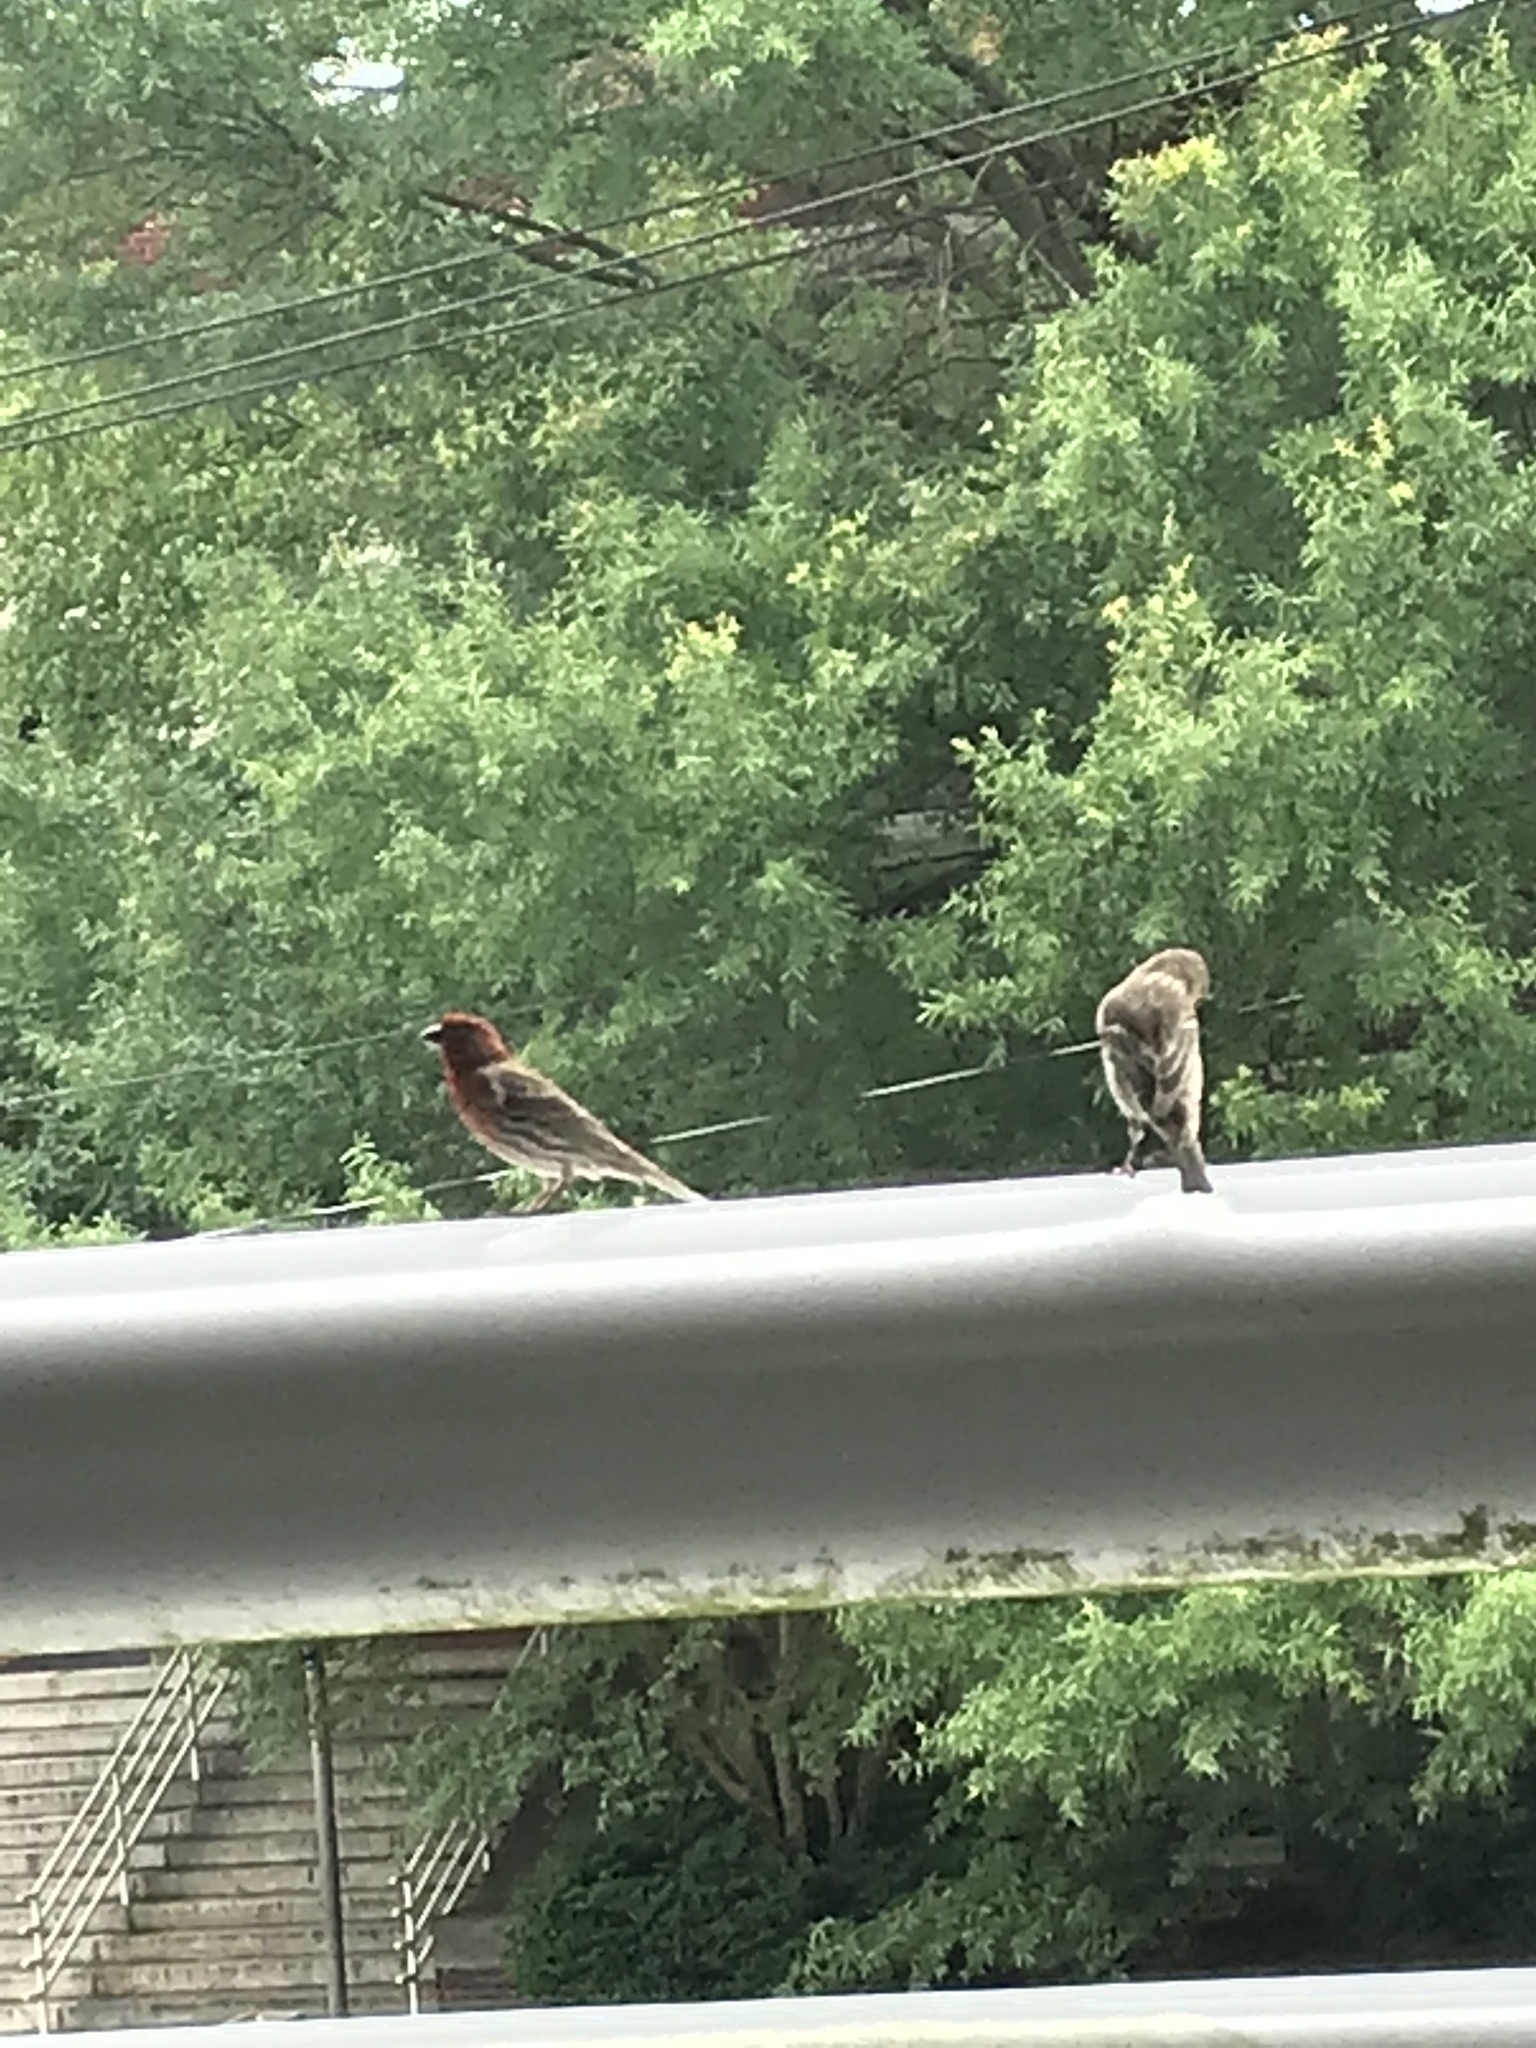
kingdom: Animalia
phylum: Chordata
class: Aves
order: Passeriformes
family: Fringillidae
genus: Haemorhous
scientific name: Haemorhous mexicanus
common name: House finch
